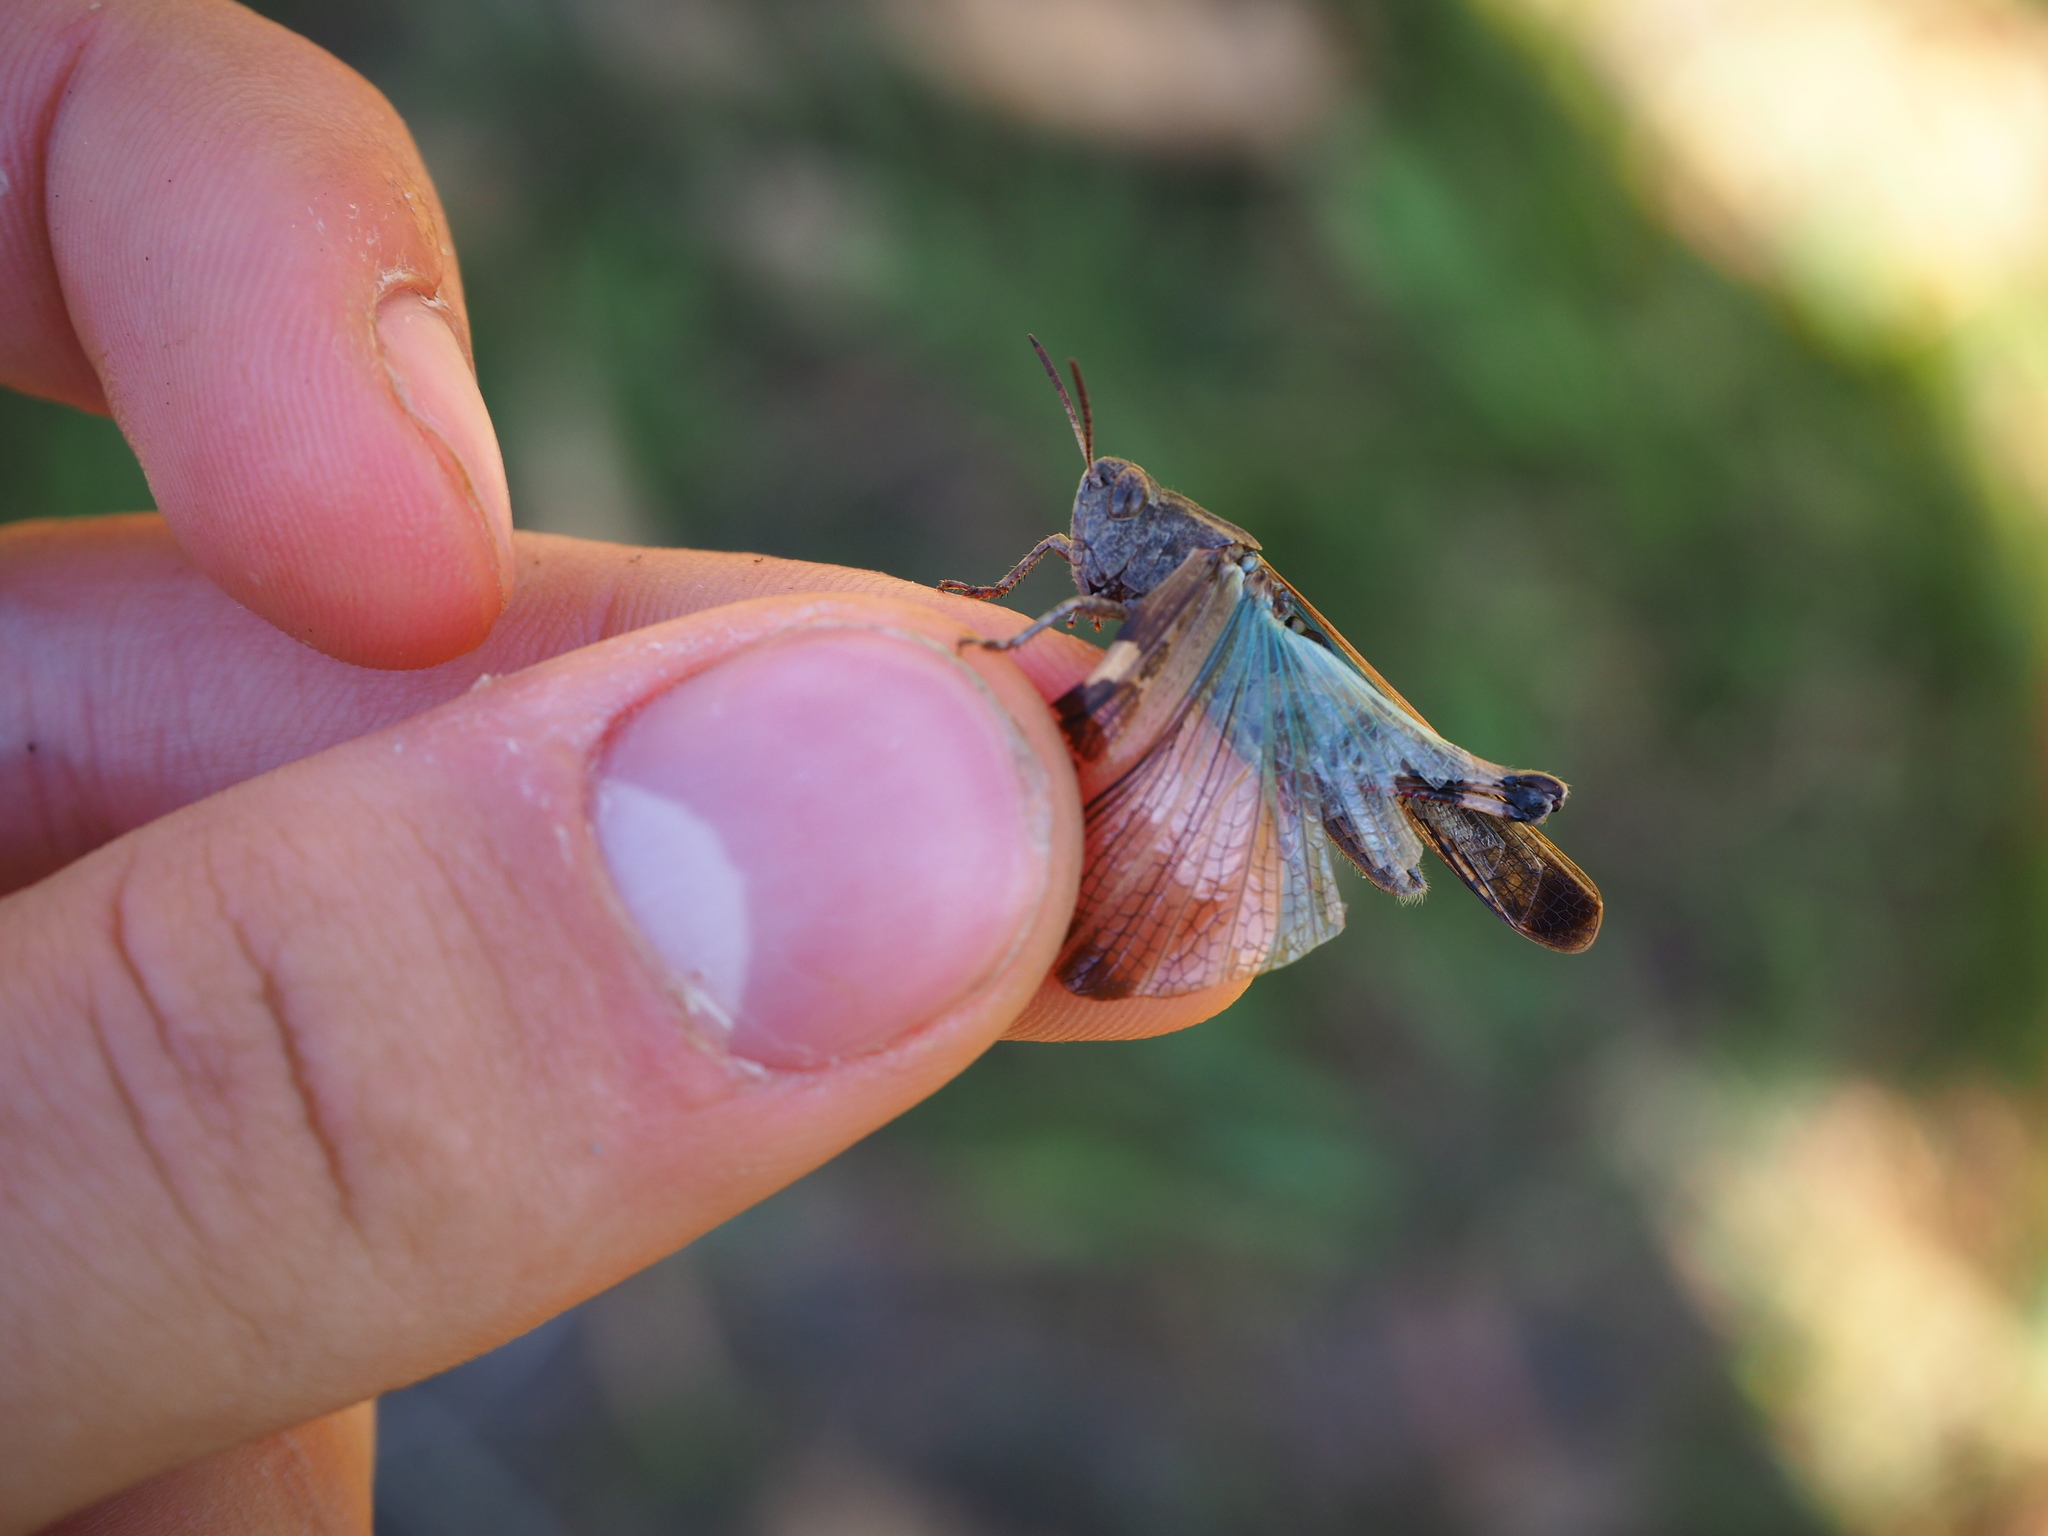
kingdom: Animalia
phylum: Arthropoda
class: Insecta
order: Orthoptera
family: Acrididae
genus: Aiolopus
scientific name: Aiolopus strepens
